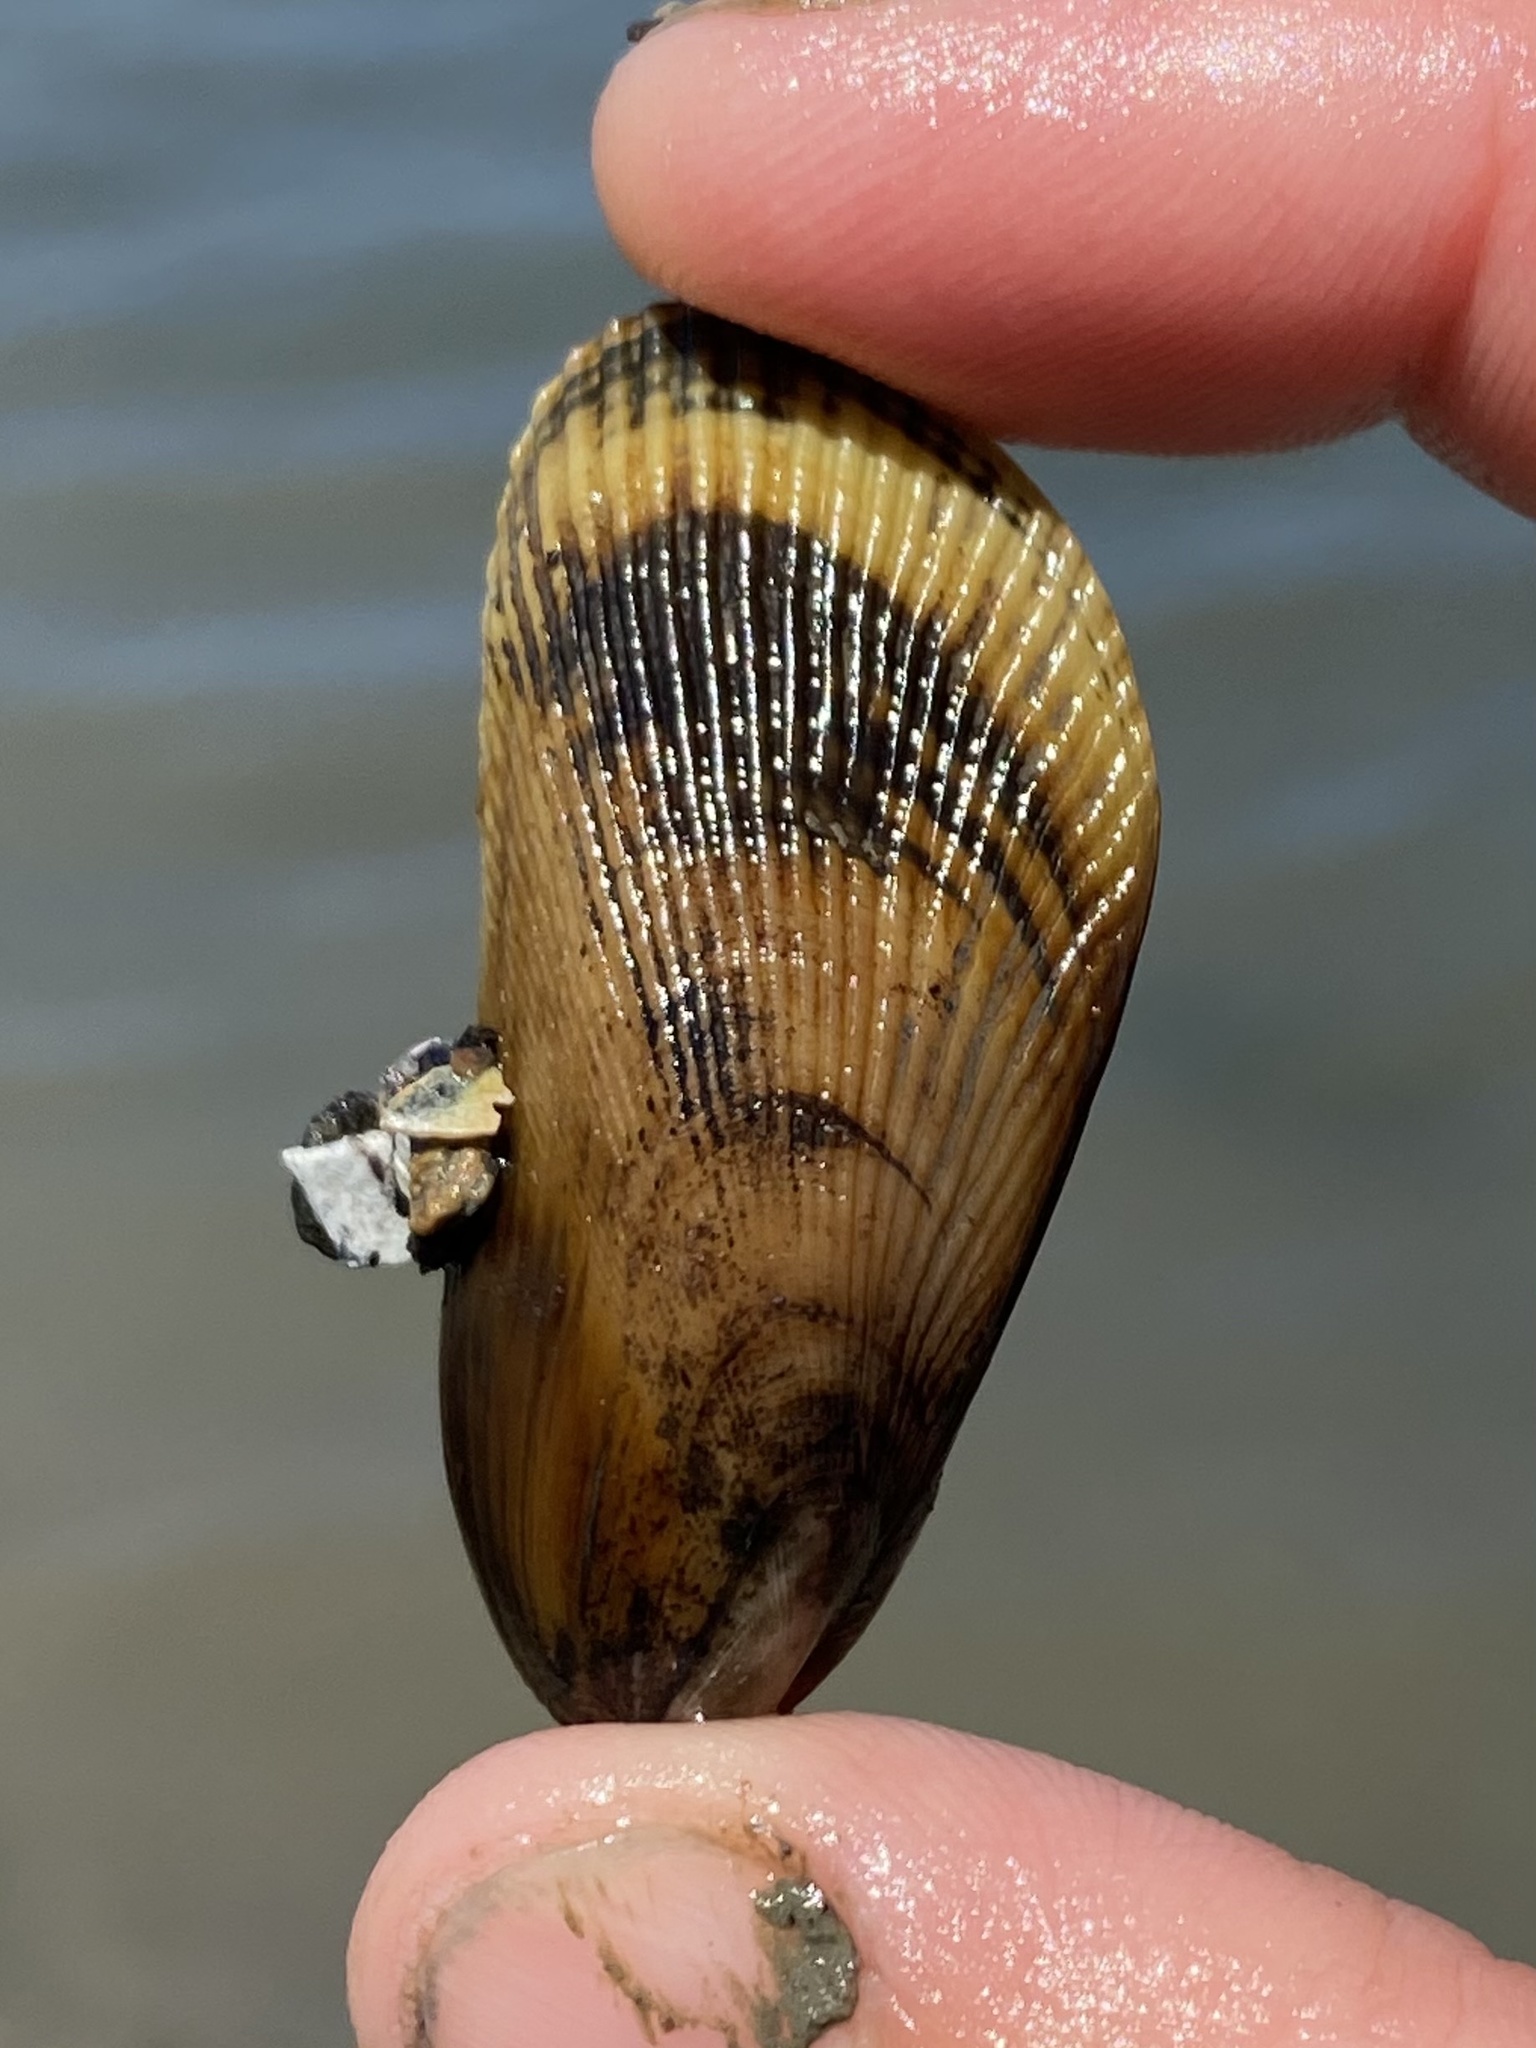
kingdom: Animalia
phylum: Mollusca
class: Bivalvia
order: Mytilida
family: Mytilidae
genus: Geukensia
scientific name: Geukensia demissa
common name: Ribbed mussel
